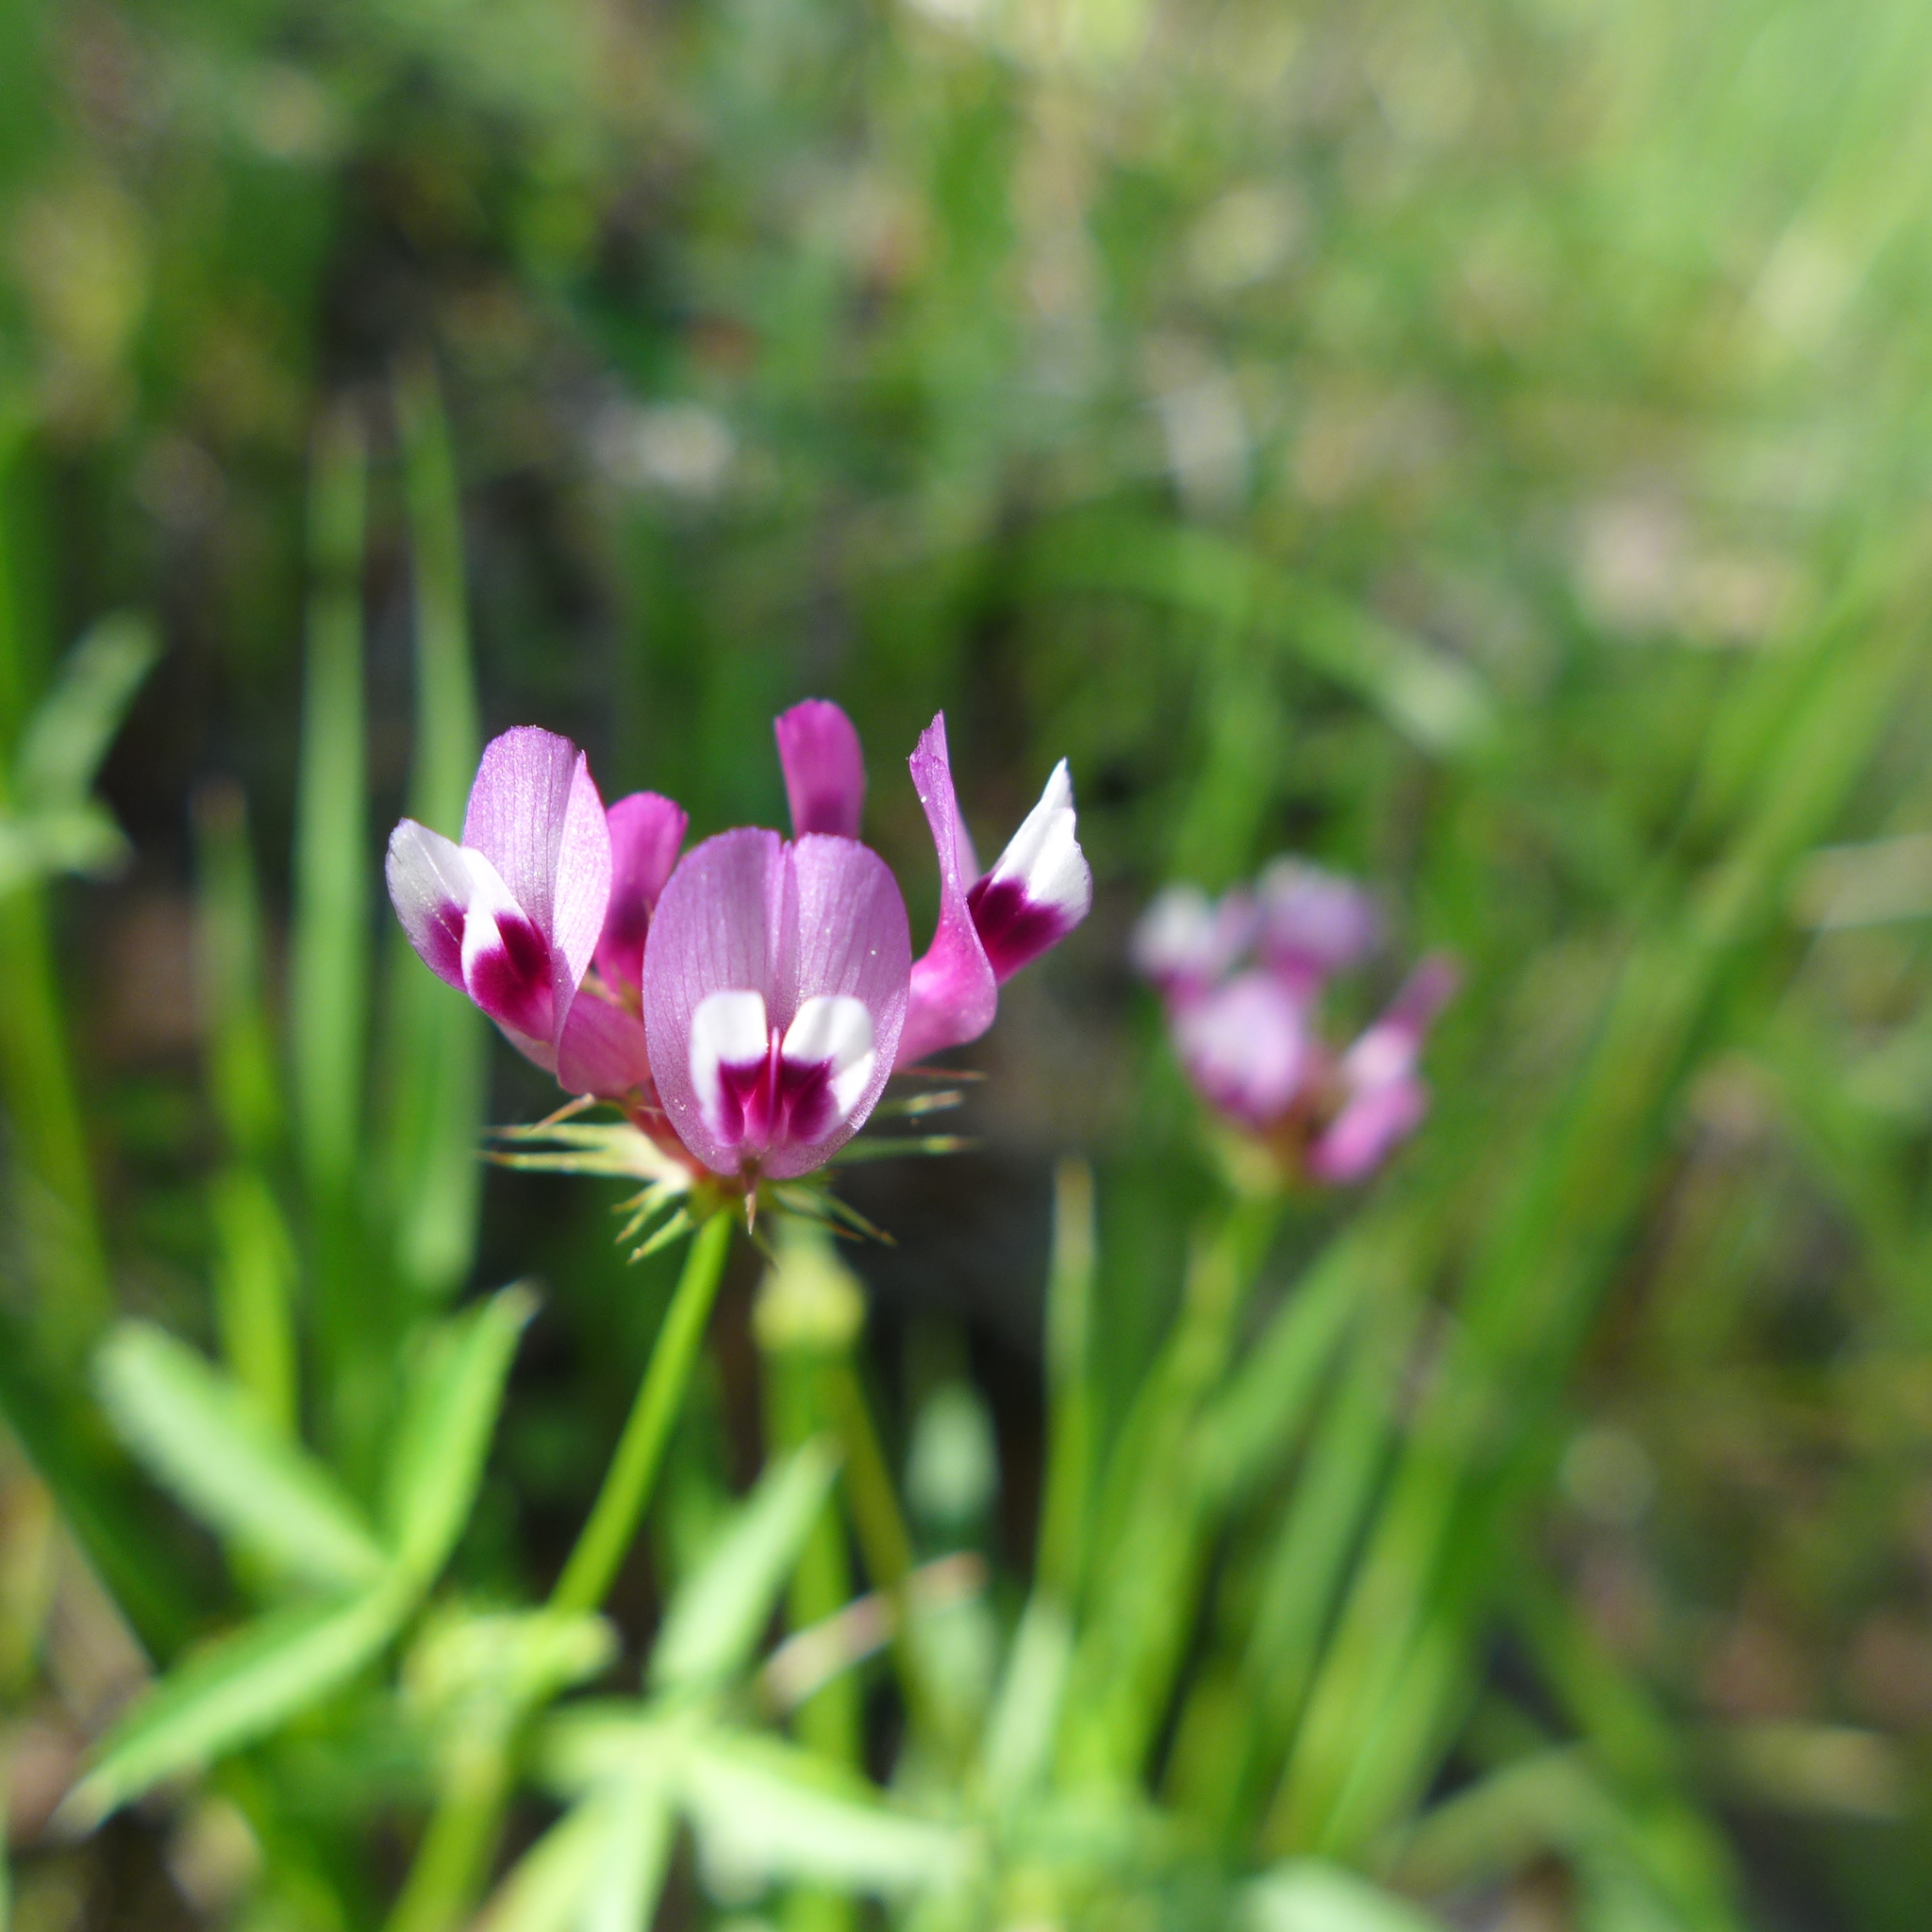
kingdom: Plantae
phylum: Tracheophyta
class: Magnoliopsida
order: Fabales
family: Fabaceae
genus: Trifolium
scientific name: Trifolium willdenovii
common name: Tomcat clover
